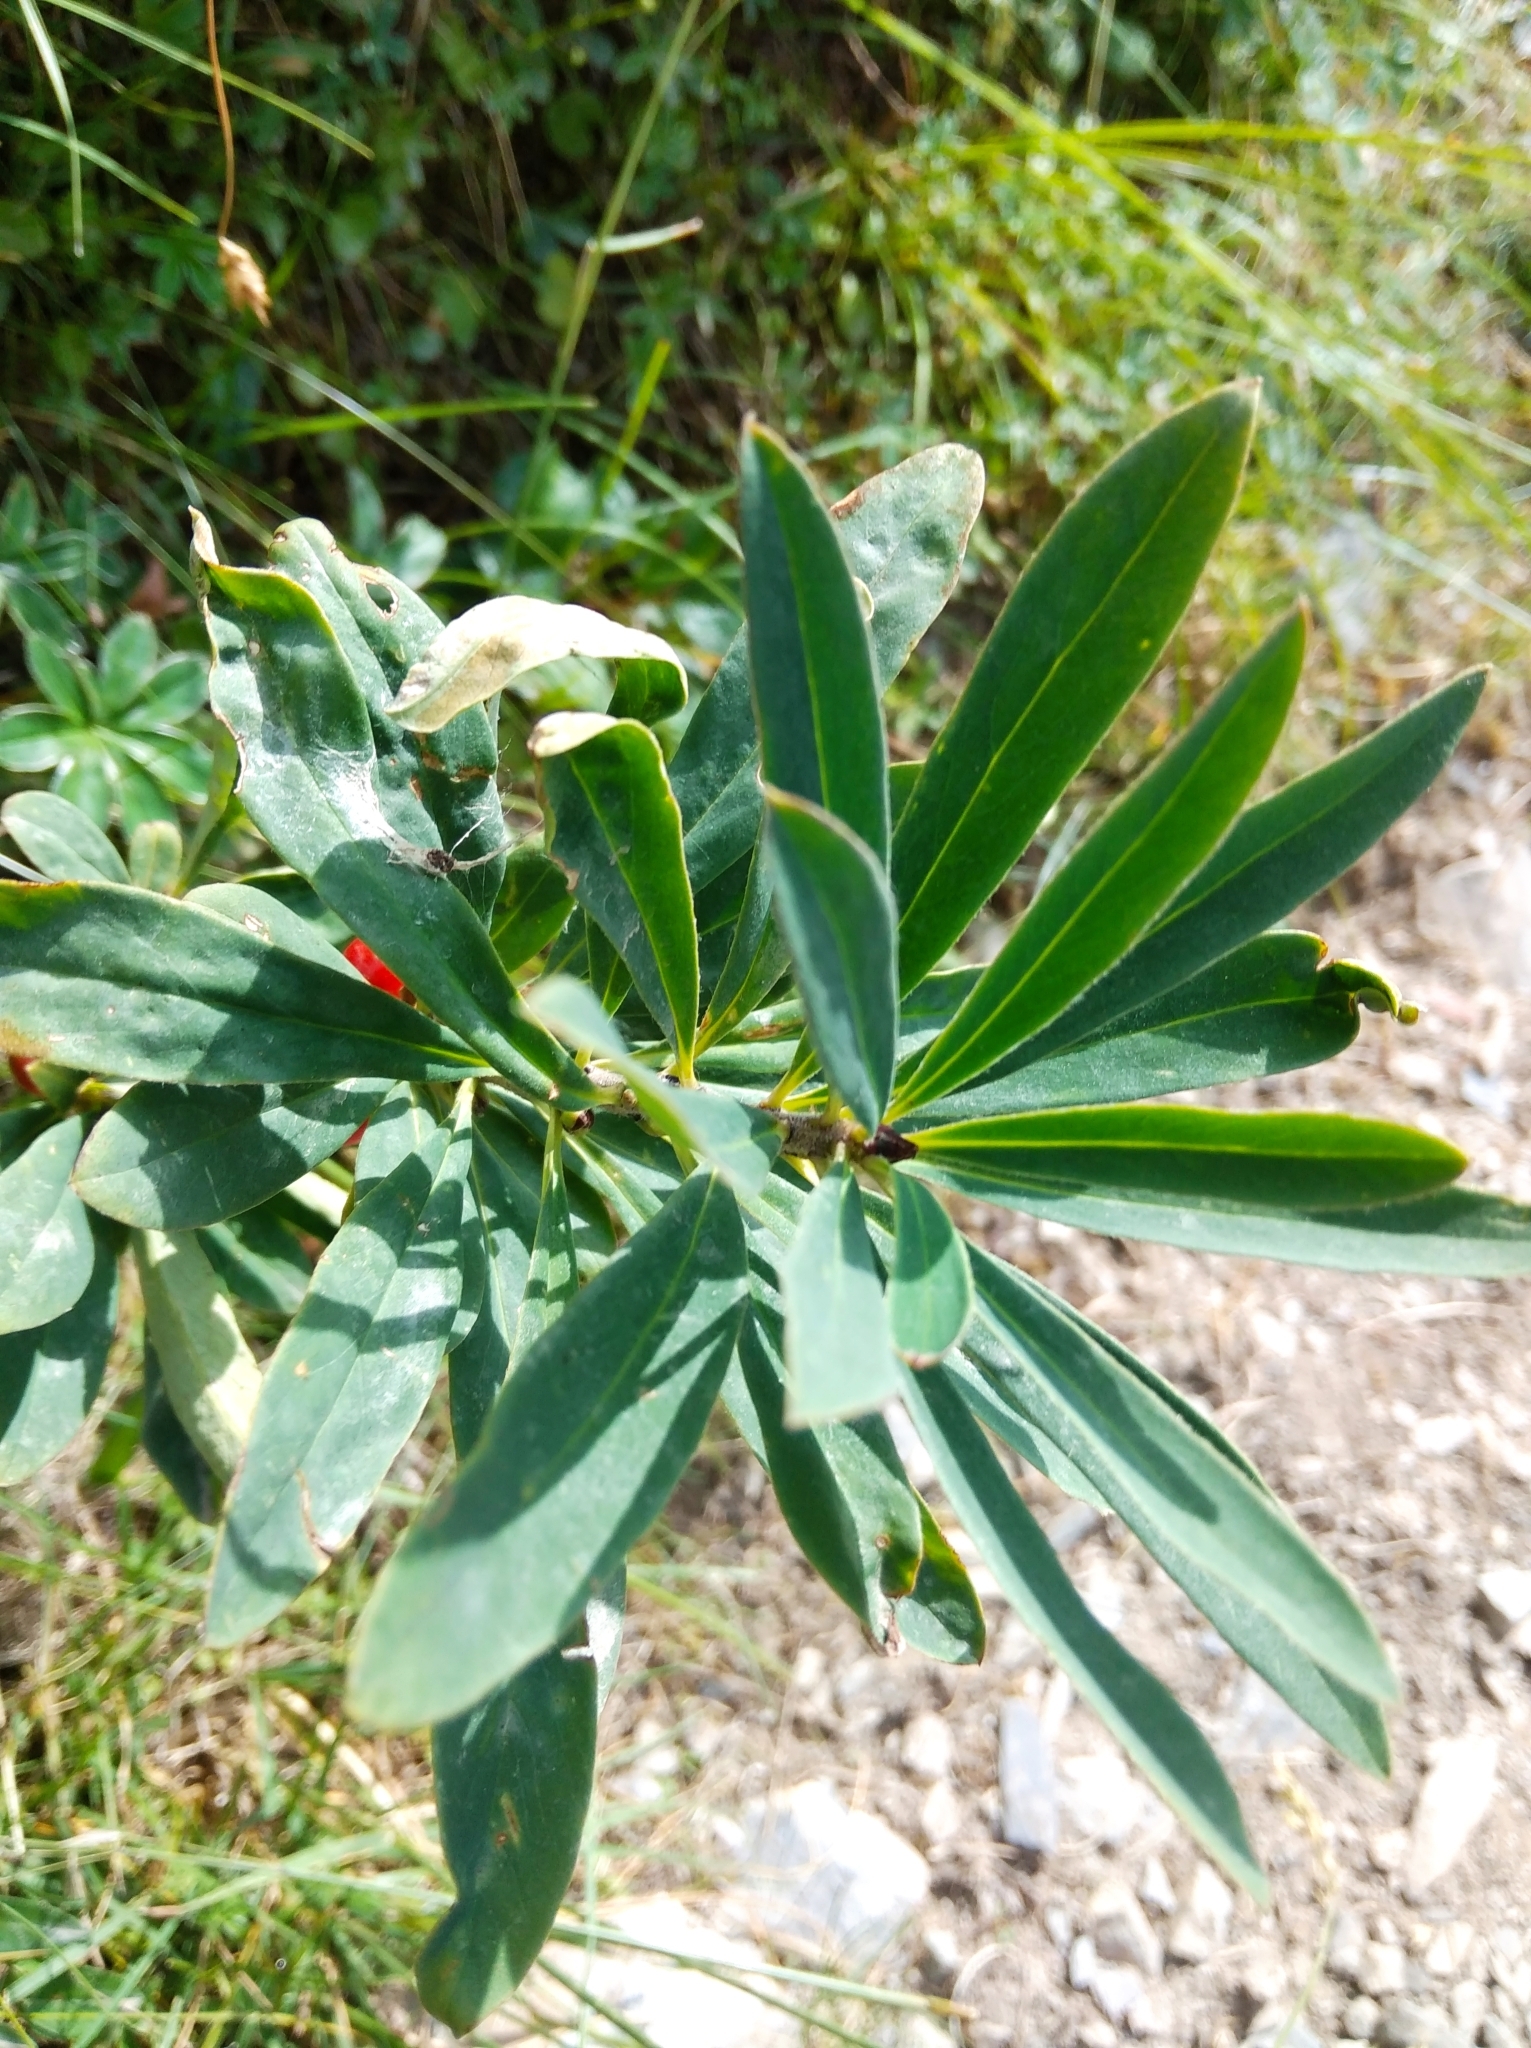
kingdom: Plantae
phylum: Tracheophyta
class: Magnoliopsida
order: Malvales
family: Thymelaeaceae
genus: Daphne
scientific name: Daphne mezereum
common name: Mezereon
